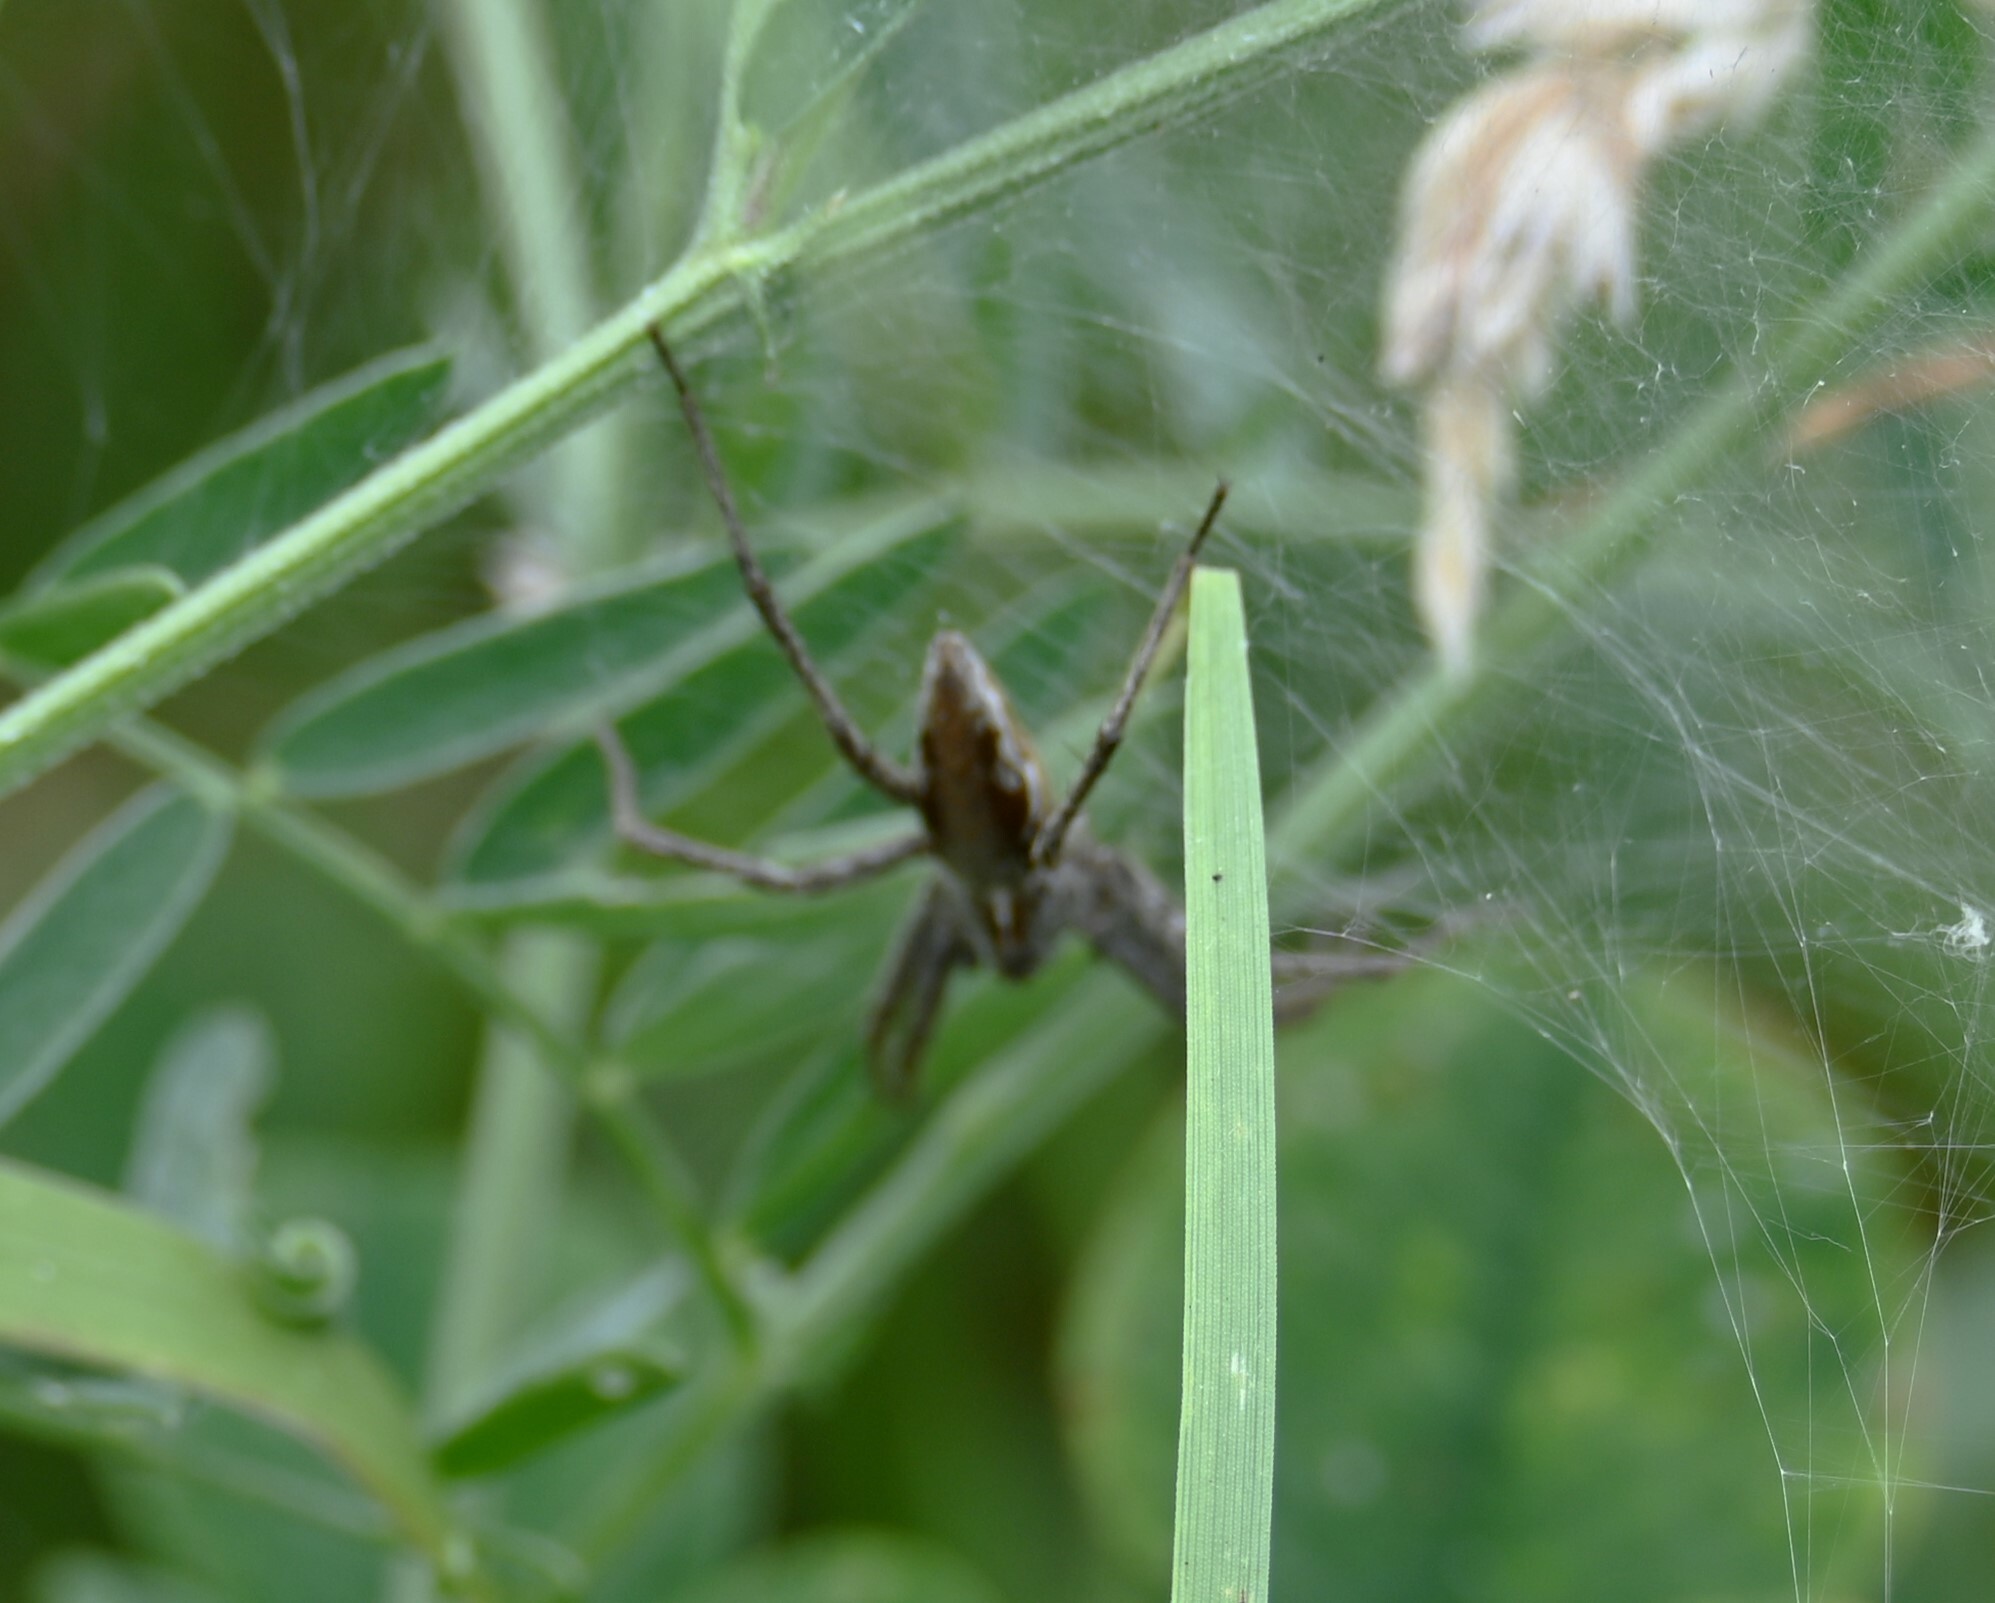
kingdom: Animalia
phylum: Arthropoda
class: Arachnida
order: Araneae
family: Pisauridae
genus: Pisaura
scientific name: Pisaura mirabilis
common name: Tent spider
